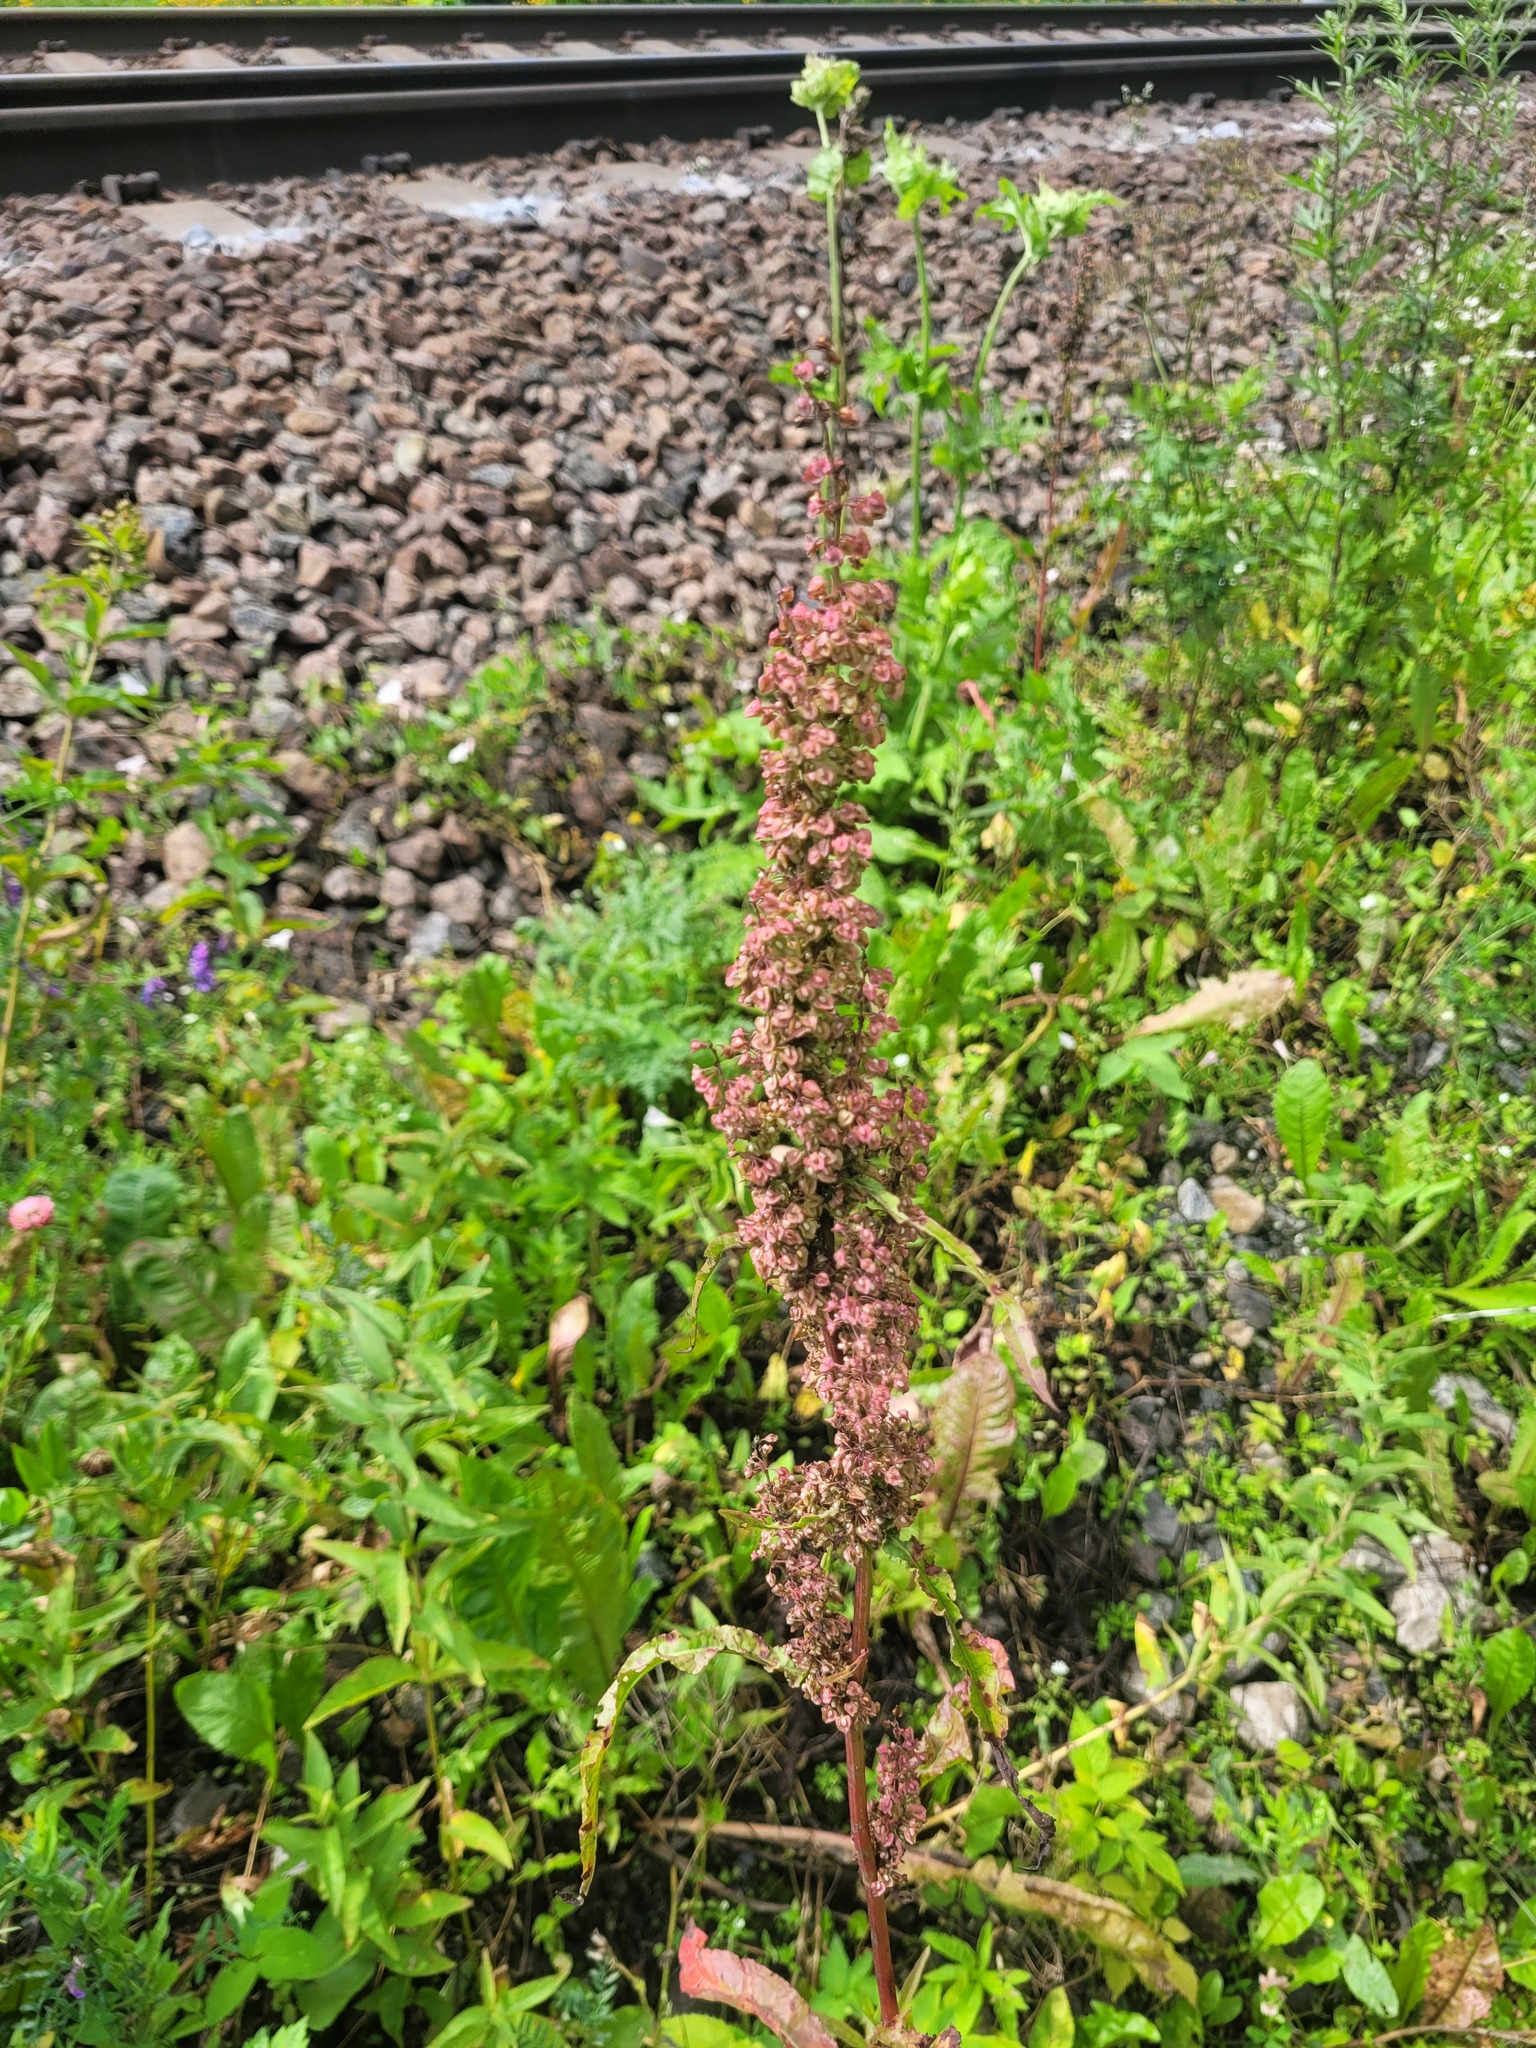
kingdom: Plantae
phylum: Tracheophyta
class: Magnoliopsida
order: Caryophyllales
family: Polygonaceae
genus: Rumex
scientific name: Rumex crispus
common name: Curled dock
